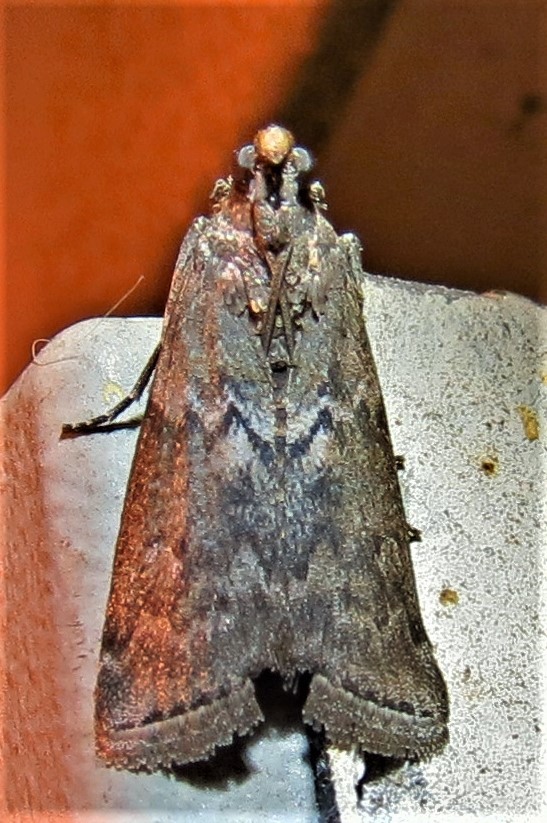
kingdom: Animalia
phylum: Arthropoda
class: Insecta
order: Lepidoptera
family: Pyralidae
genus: Salebriaria
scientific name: Salebriaria turpidella
